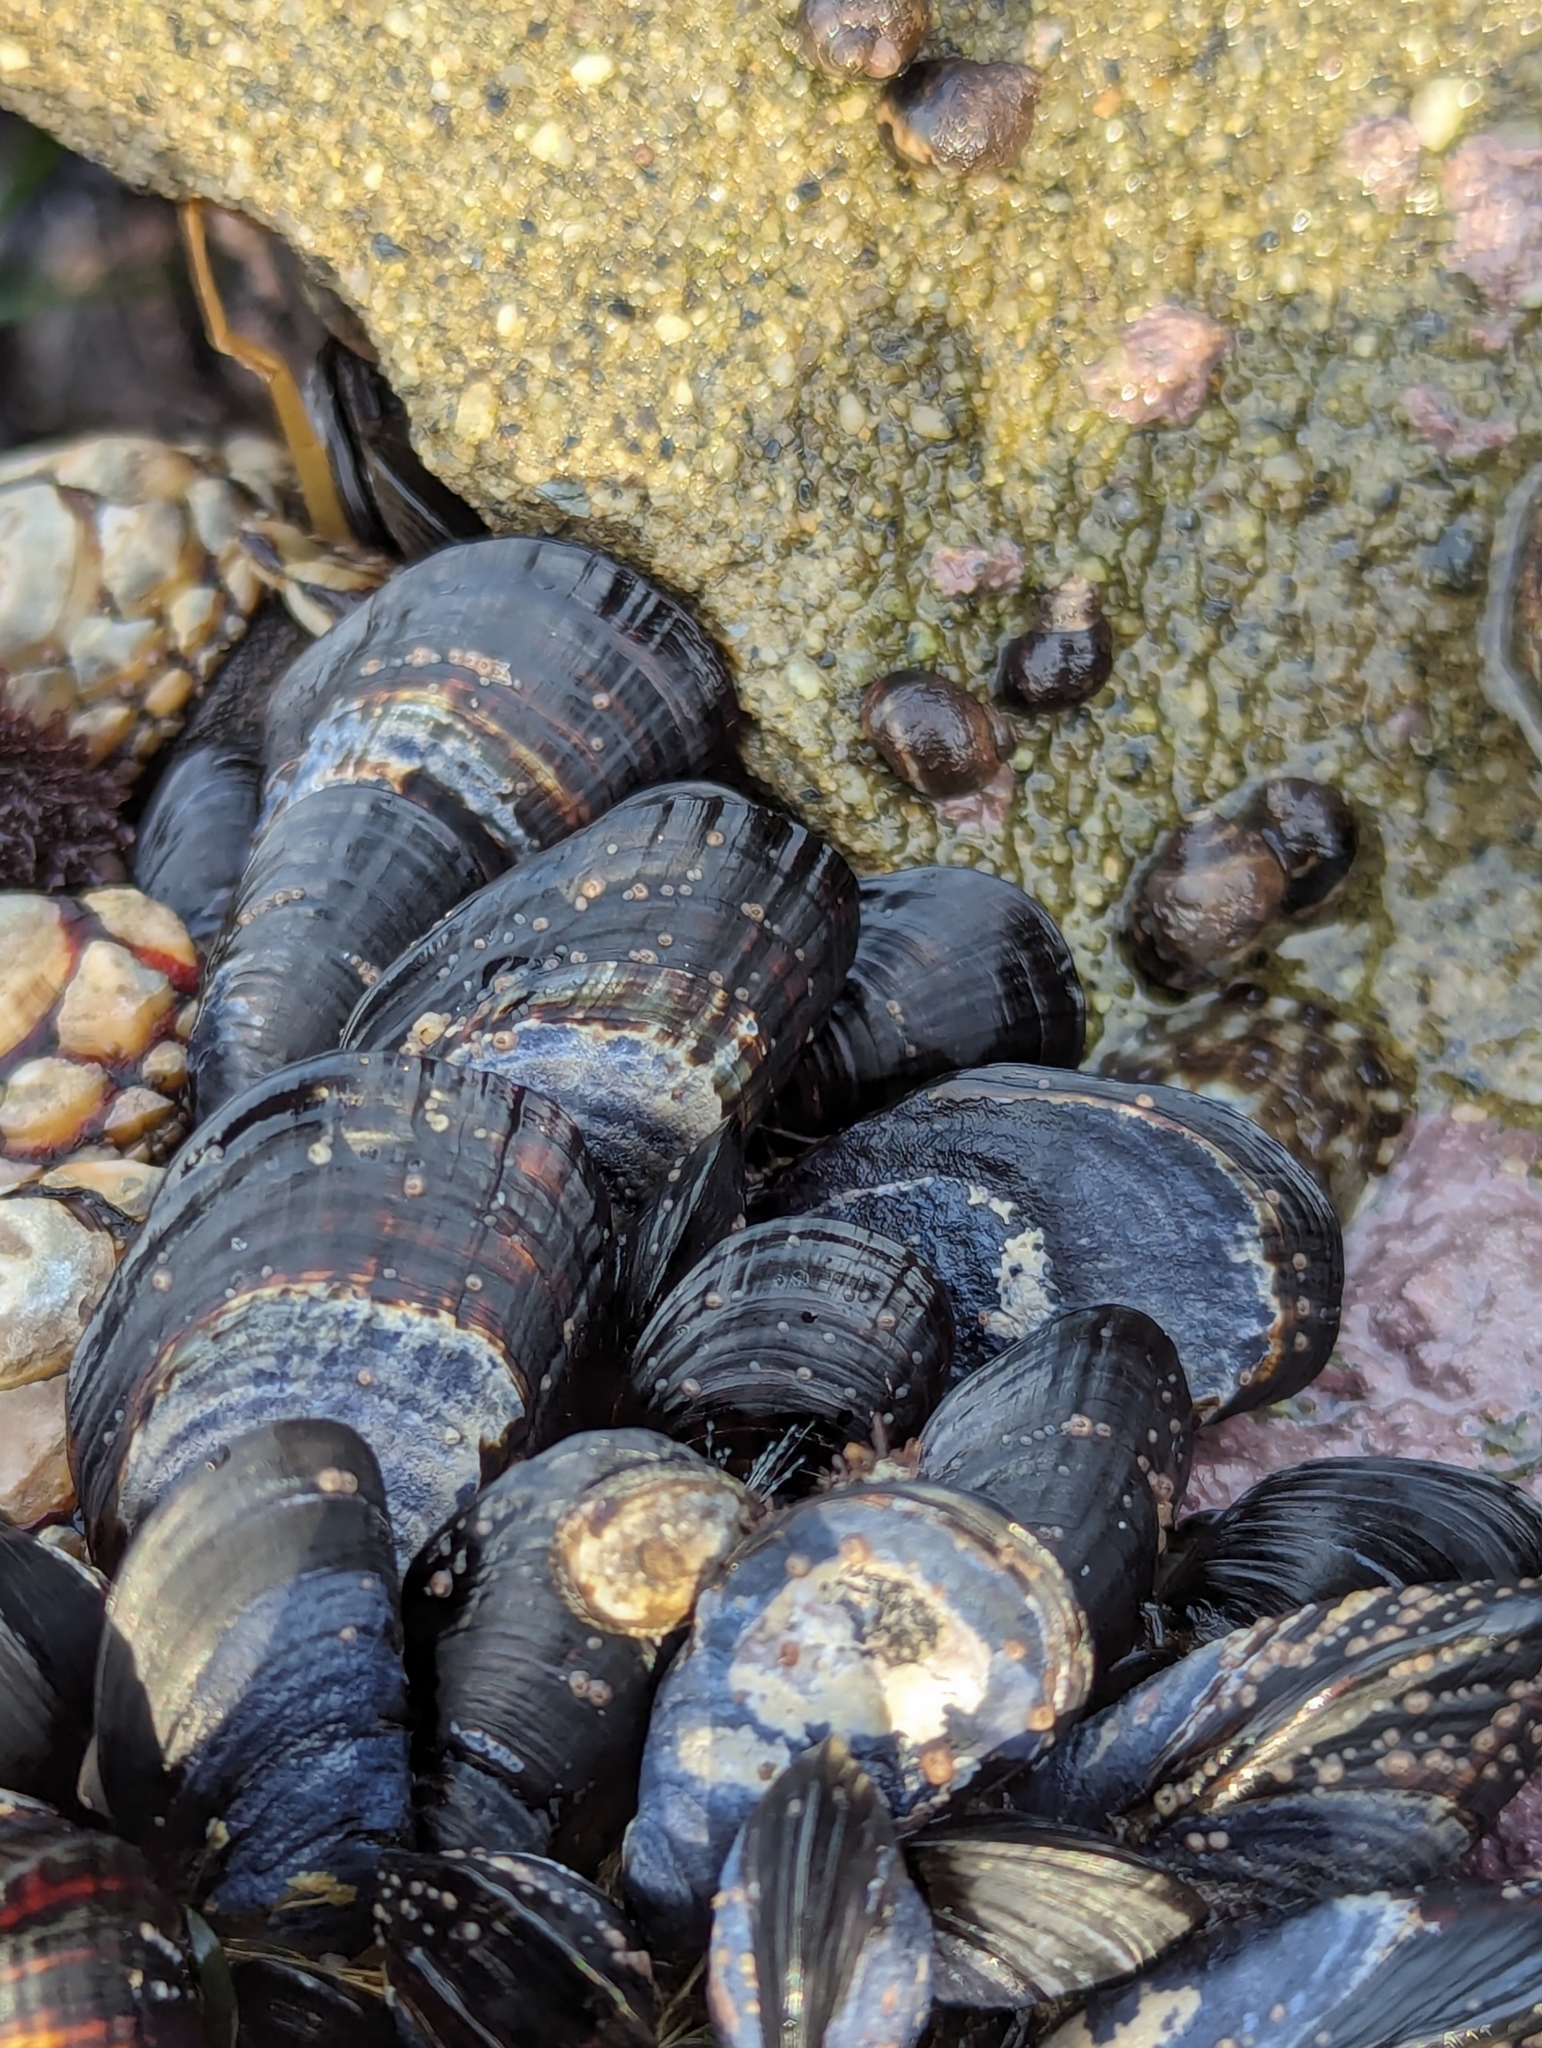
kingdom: Animalia
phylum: Mollusca
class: Bivalvia
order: Mytilida
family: Mytilidae
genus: Mytilus
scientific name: Mytilus californianus
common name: California mussel
